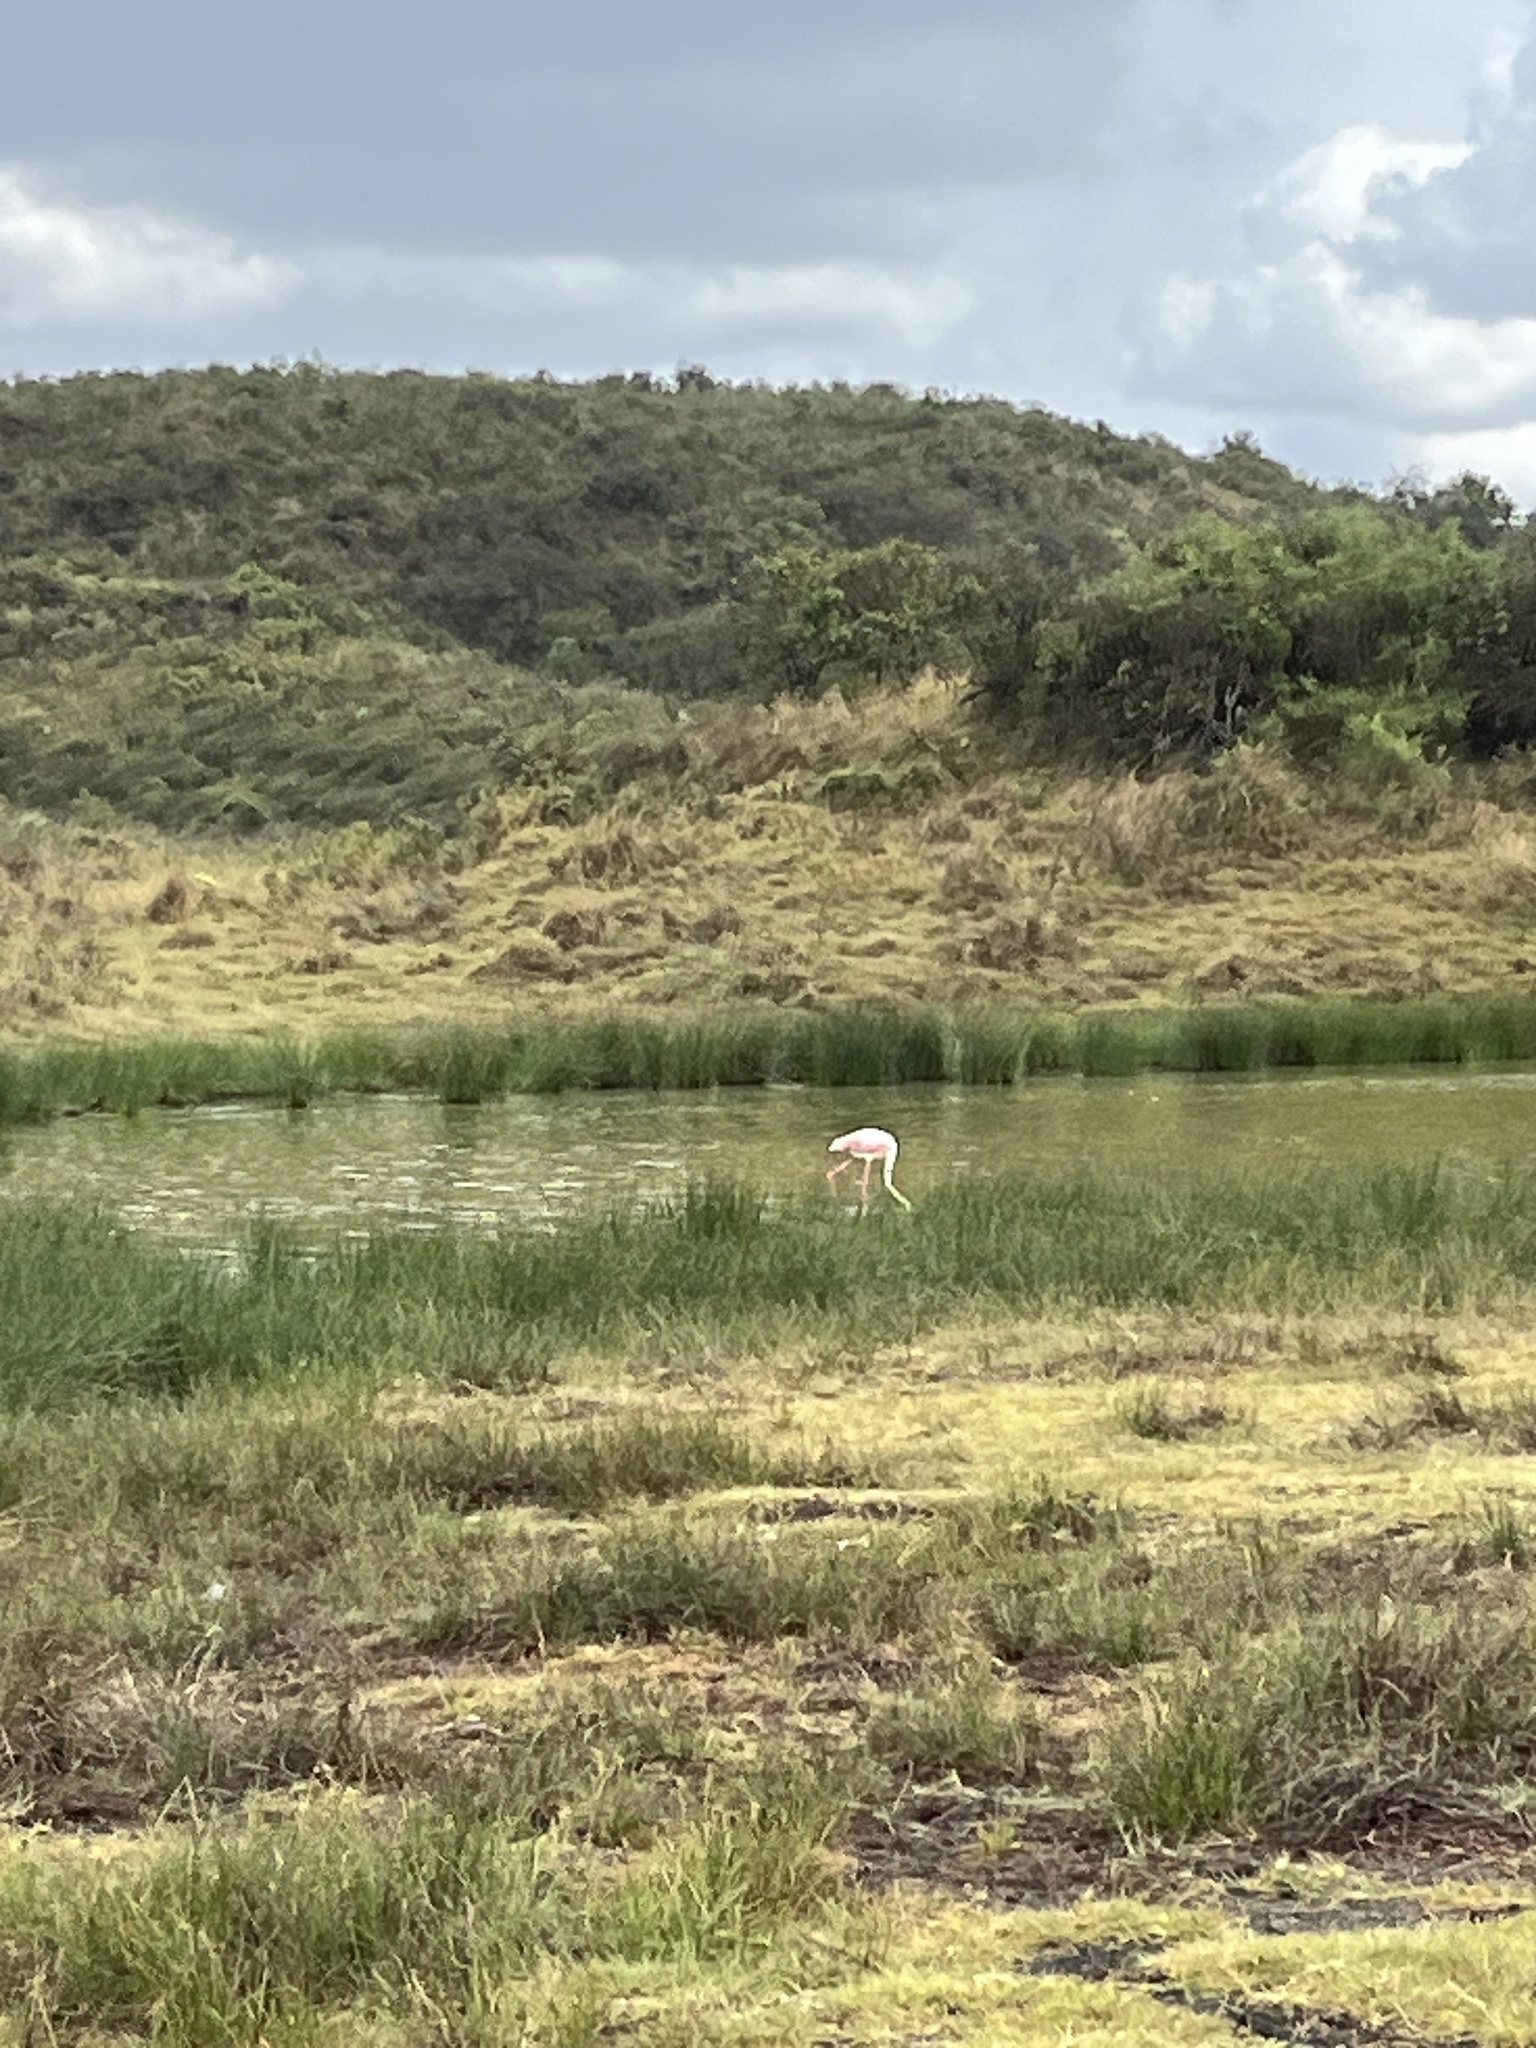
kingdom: Animalia
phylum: Chordata
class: Aves
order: Phoenicopteriformes
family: Phoenicopteridae
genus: Phoeniconaias
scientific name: Phoeniconaias minor
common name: Lesser flamingo
